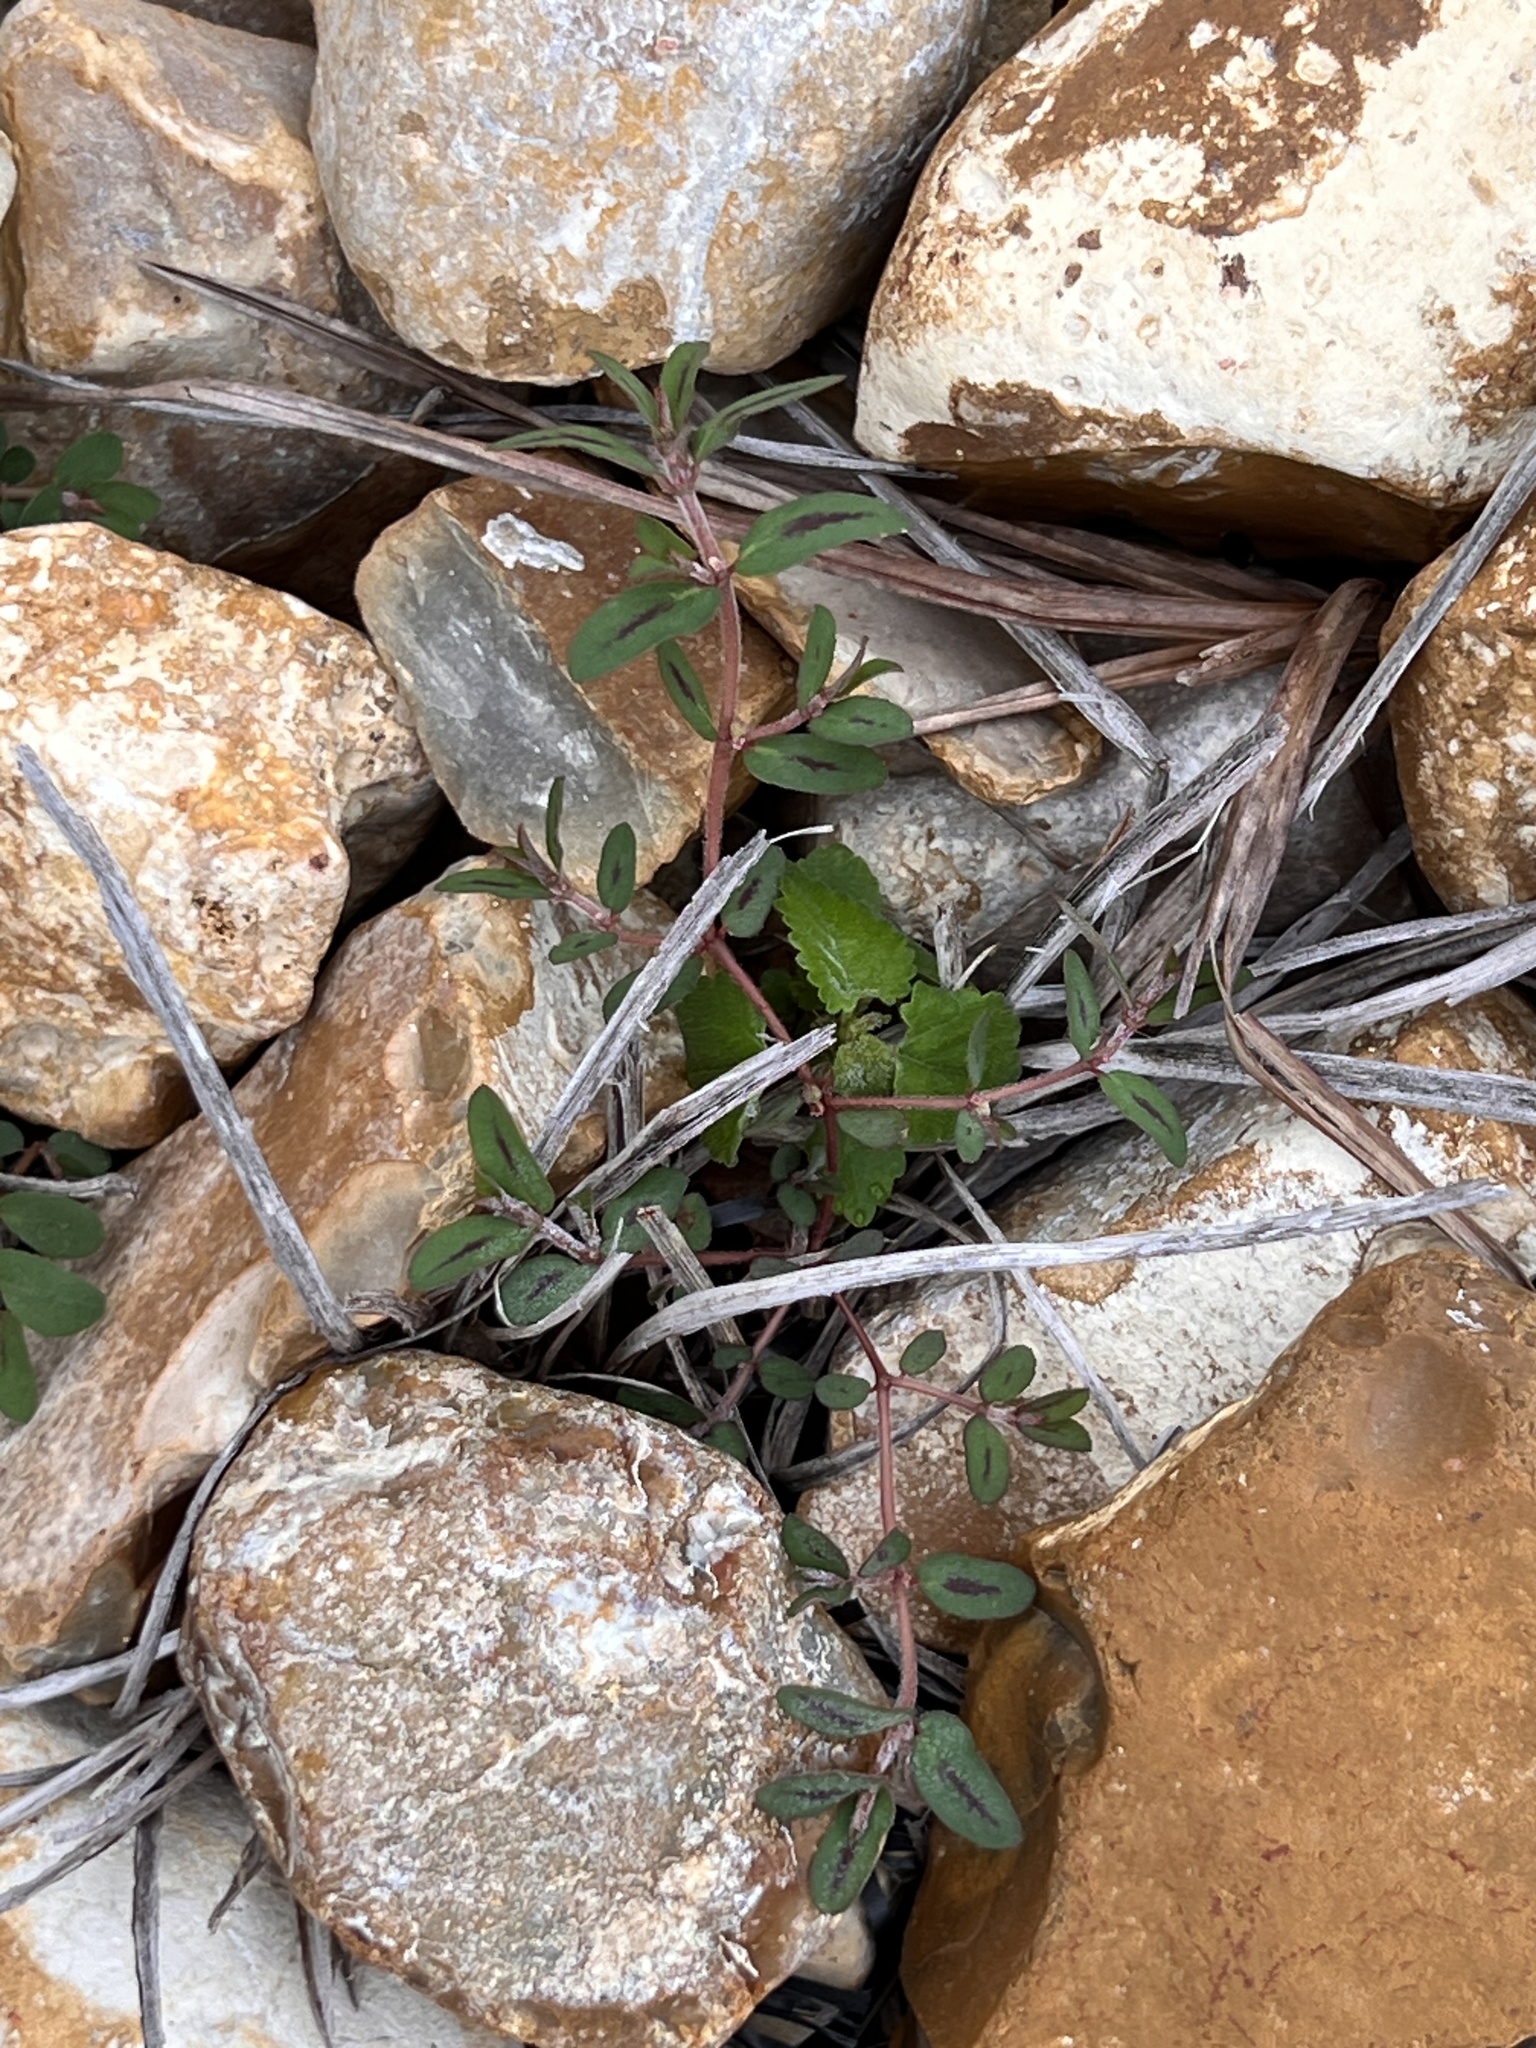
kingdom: Plantae
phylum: Tracheophyta
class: Magnoliopsida
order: Malpighiales
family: Euphorbiaceae
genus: Euphorbia
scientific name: Euphorbia maculata
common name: Spotted spurge
